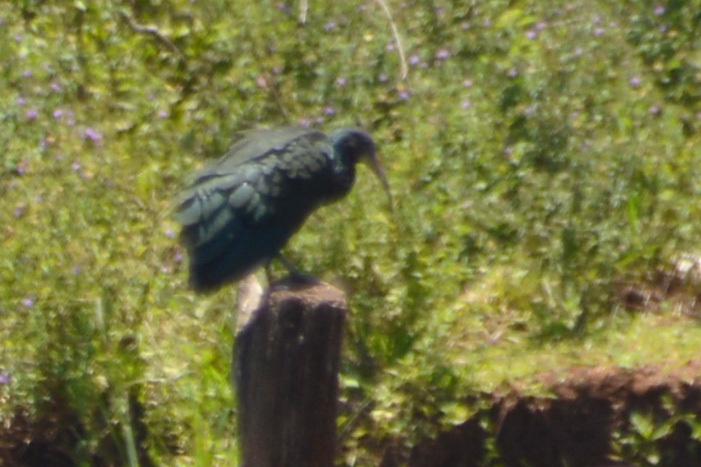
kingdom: Animalia
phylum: Chordata
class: Aves
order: Pelecaniformes
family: Threskiornithidae
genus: Mesembrinibis
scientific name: Mesembrinibis cayennensis
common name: Green ibis
